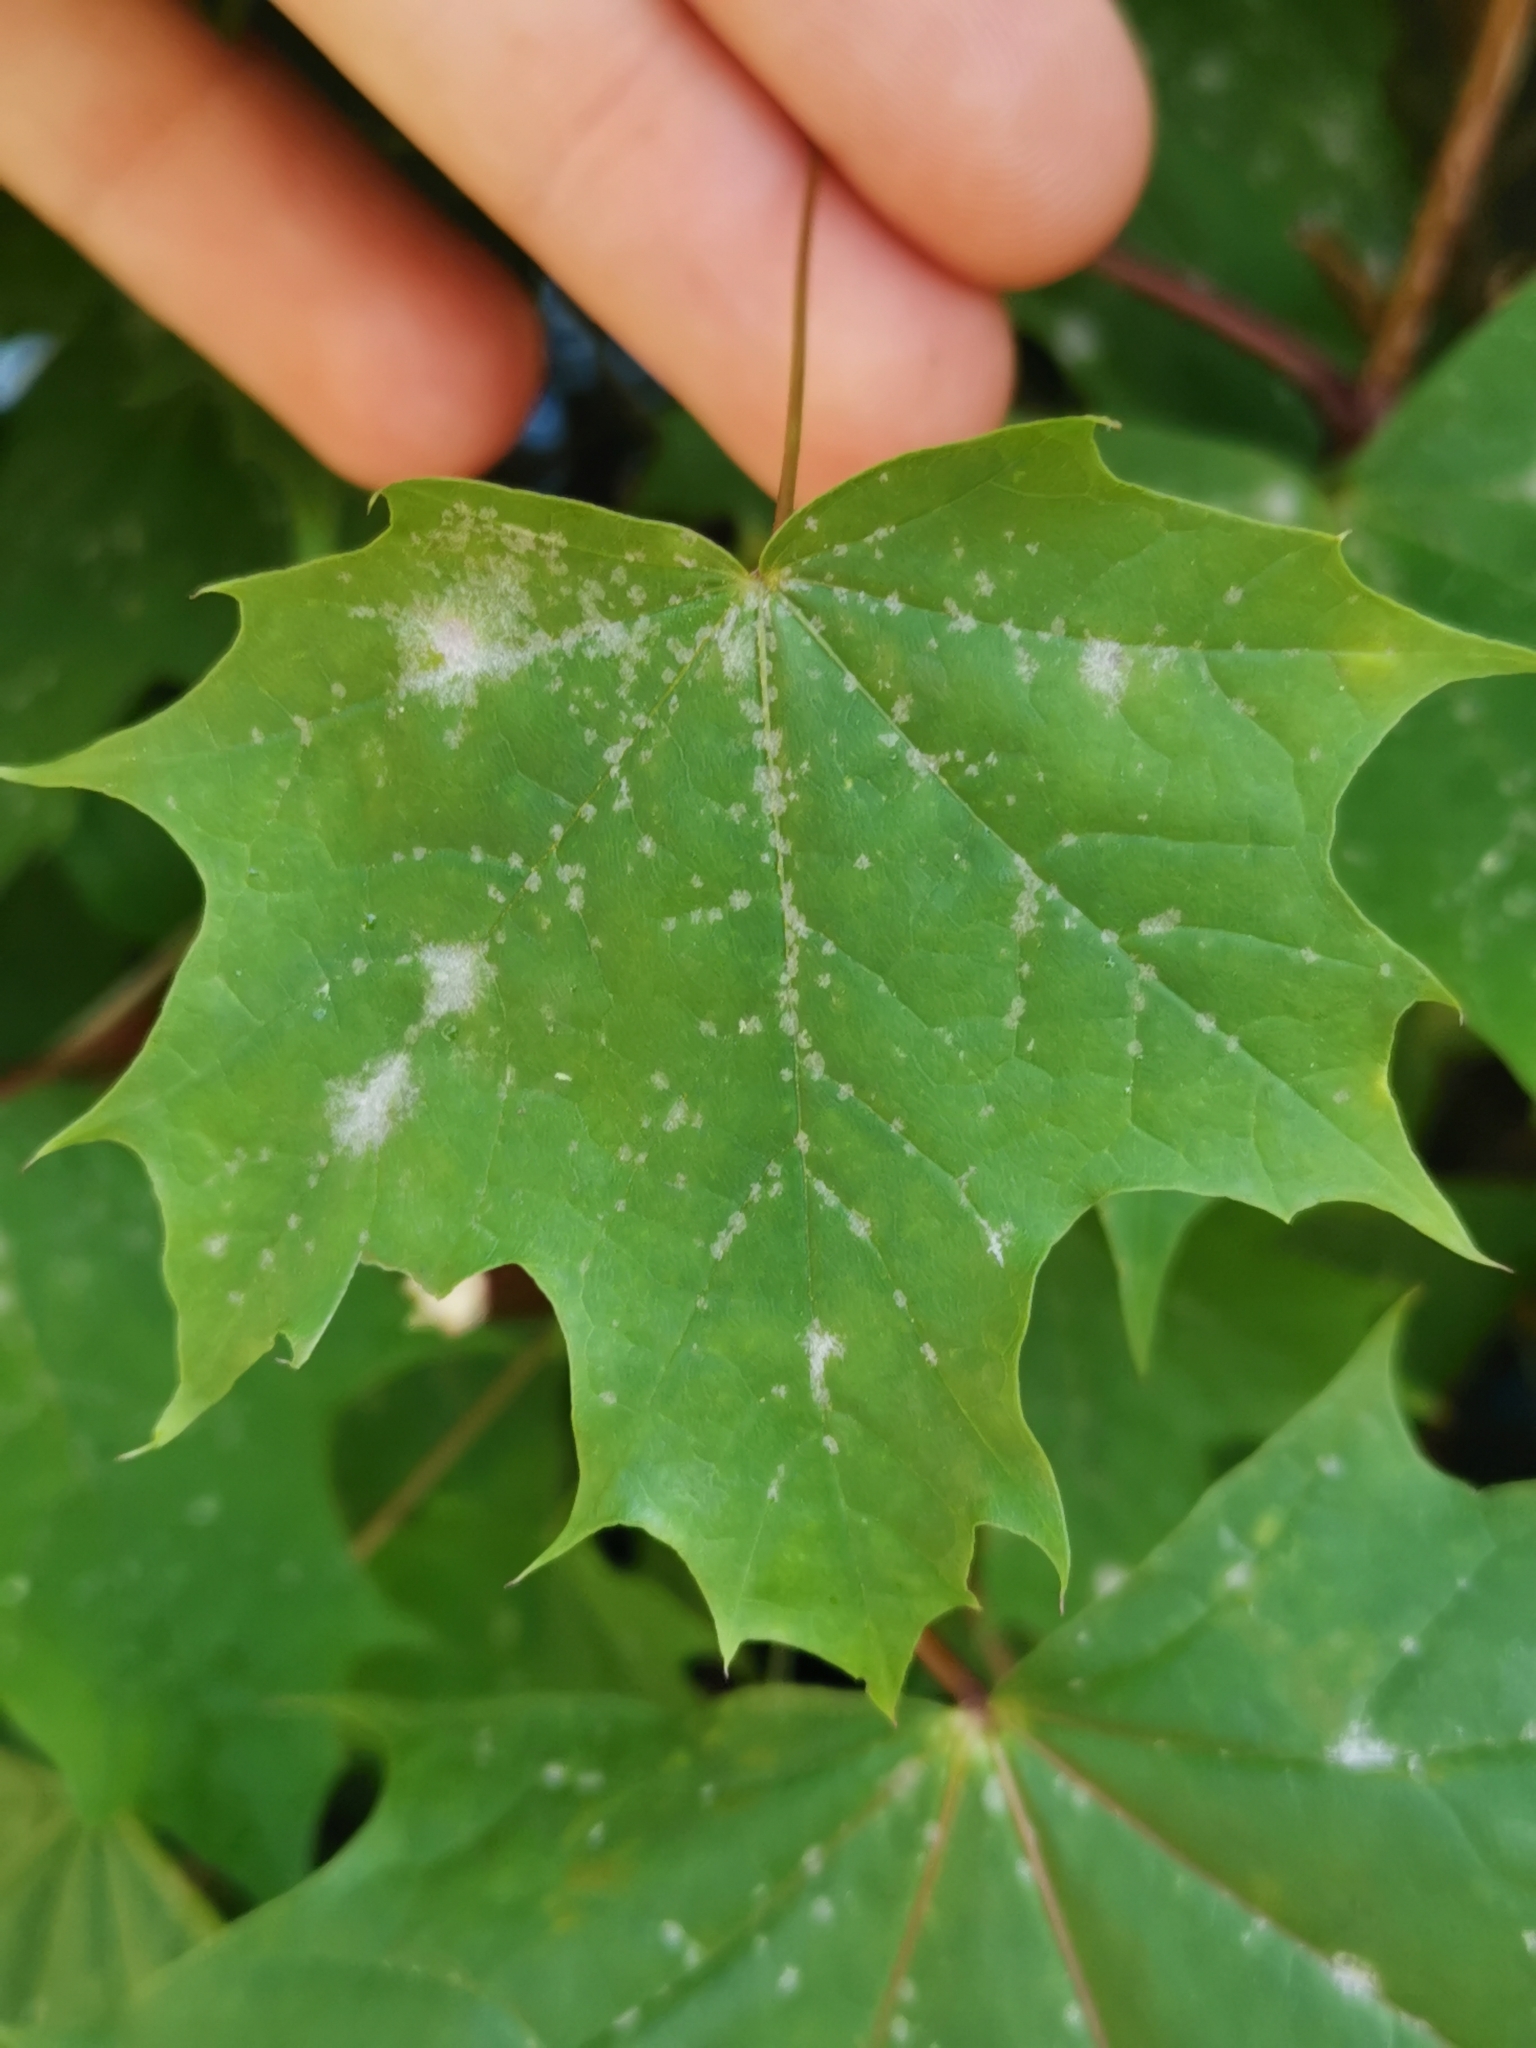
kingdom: Fungi
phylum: Ascomycota
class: Leotiomycetes
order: Helotiales
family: Erysiphaceae
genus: Sawadaea
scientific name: Sawadaea tulasnei
